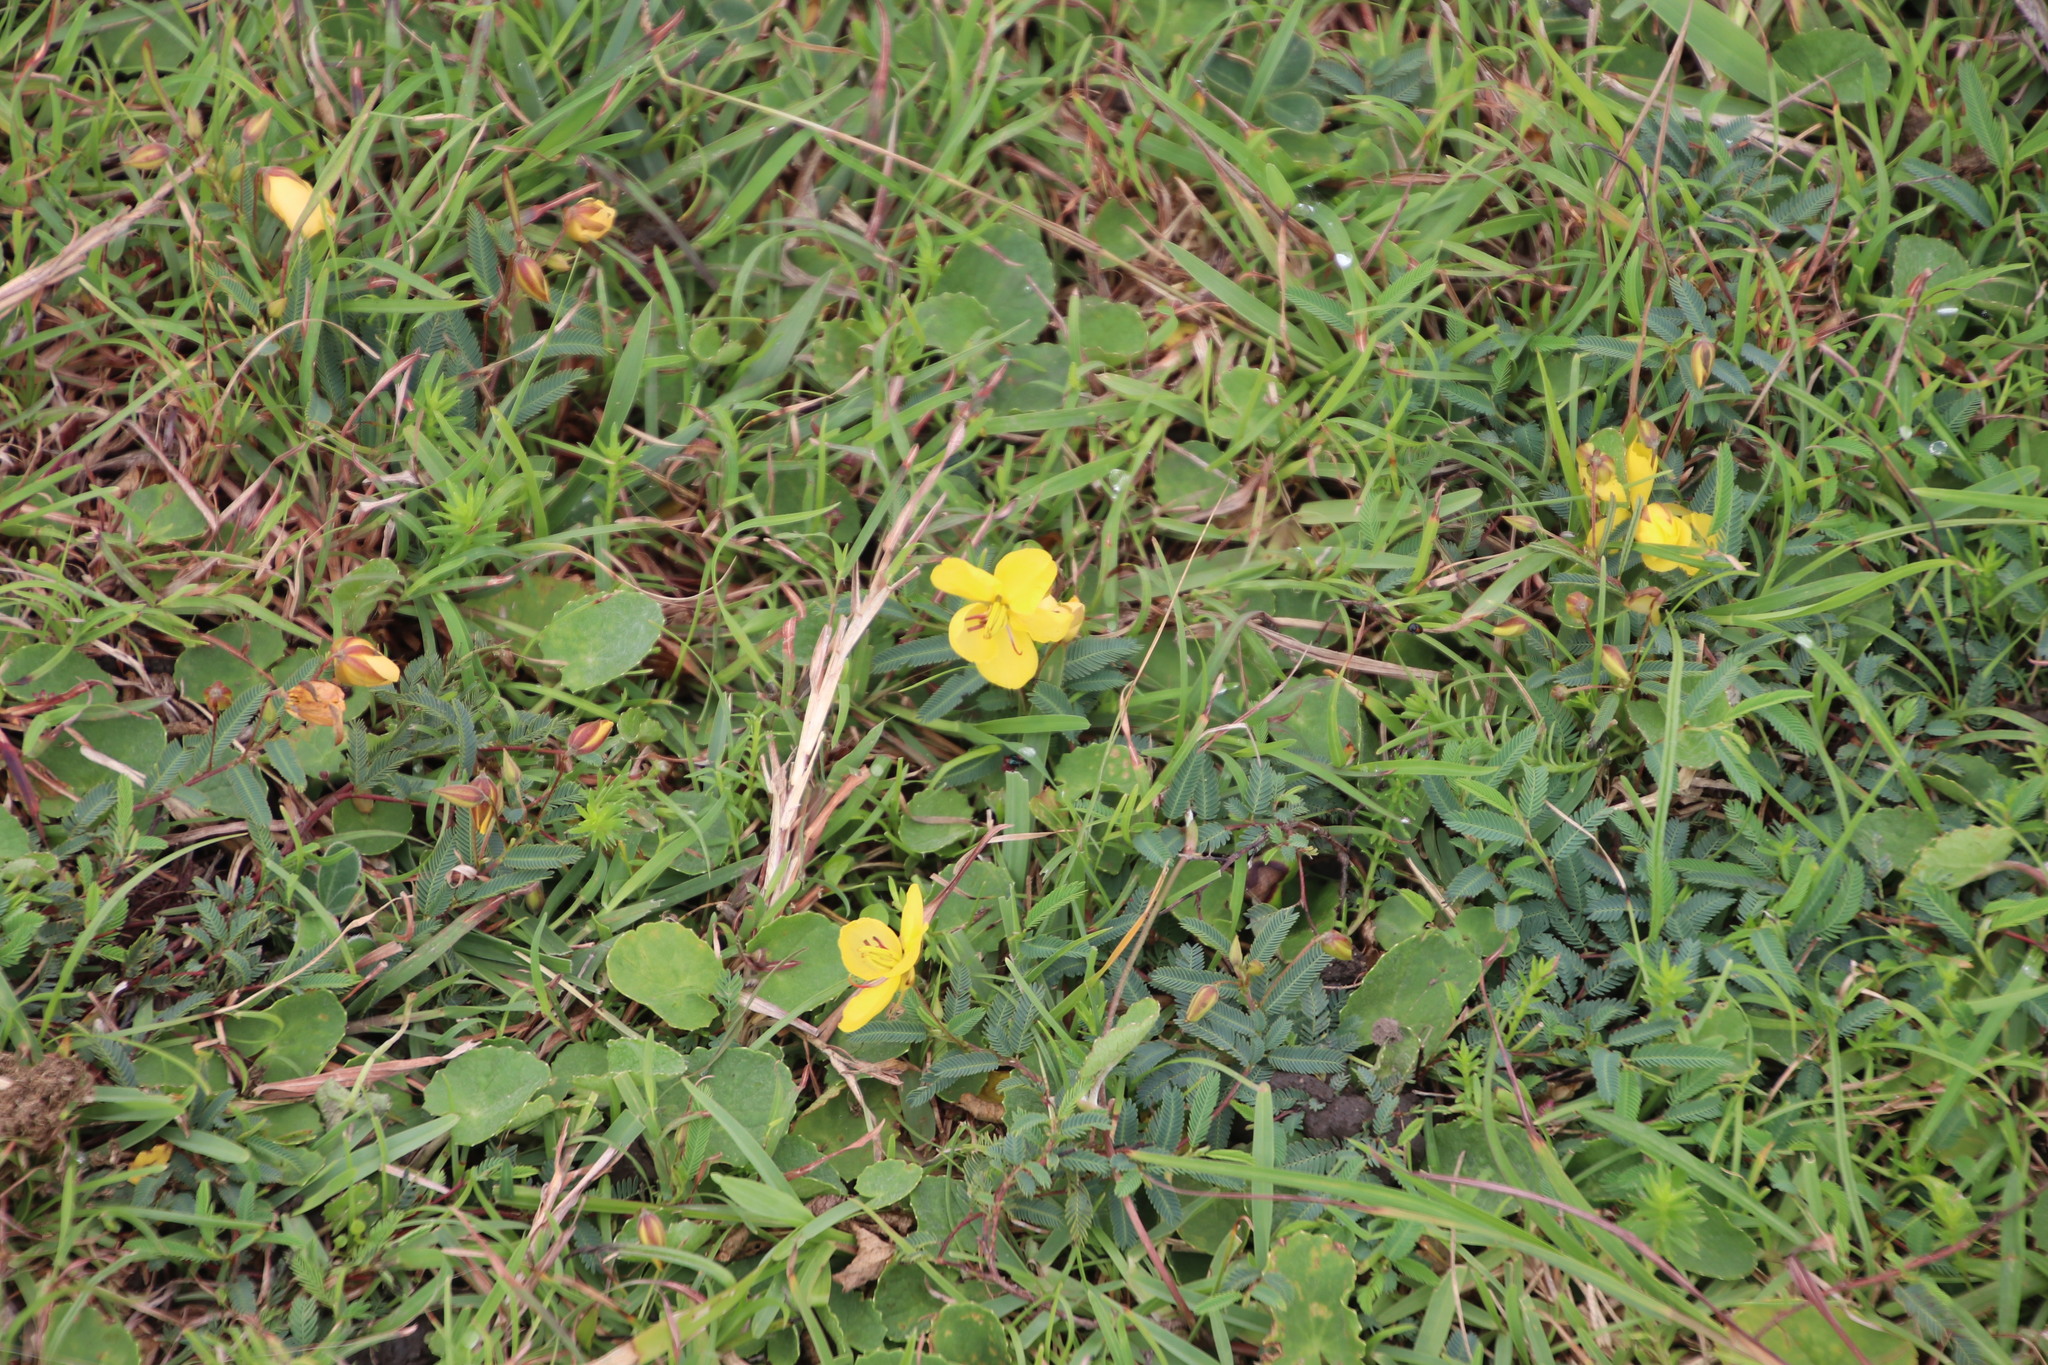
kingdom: Plantae
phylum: Tracheophyta
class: Magnoliopsida
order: Fabales
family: Fabaceae
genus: Chamaecrista
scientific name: Chamaecrista comosa
